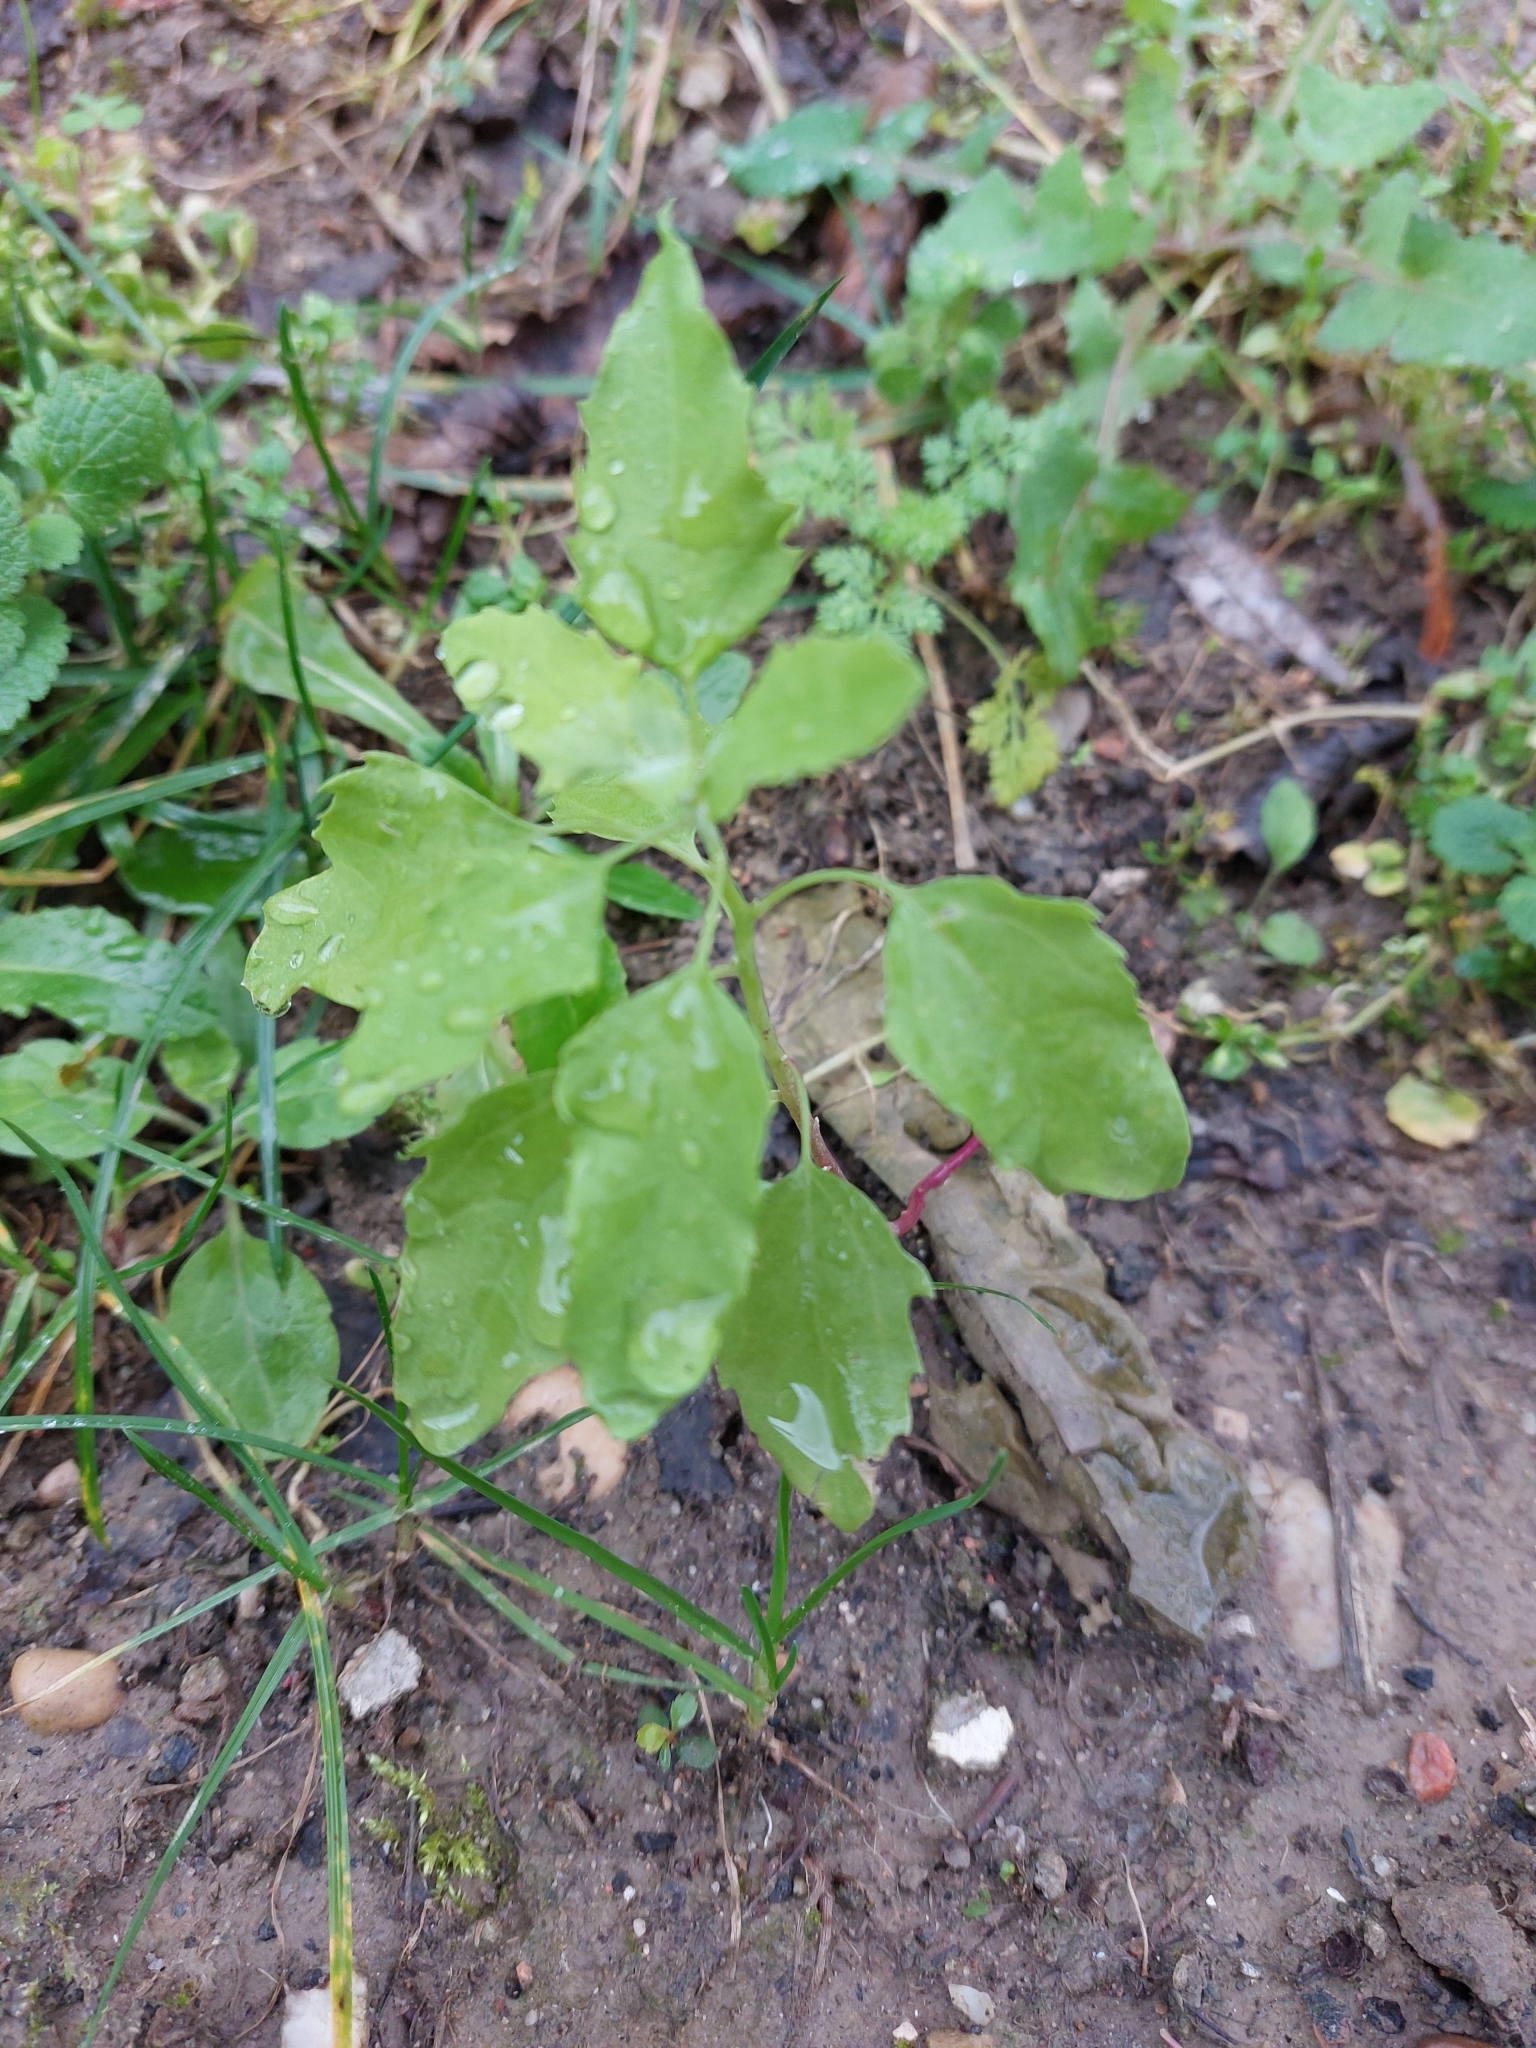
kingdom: Plantae
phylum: Tracheophyta
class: Magnoliopsida
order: Caryophyllales
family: Amaranthaceae
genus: Chenopodium
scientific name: Chenopodium album
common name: Fat-hen
